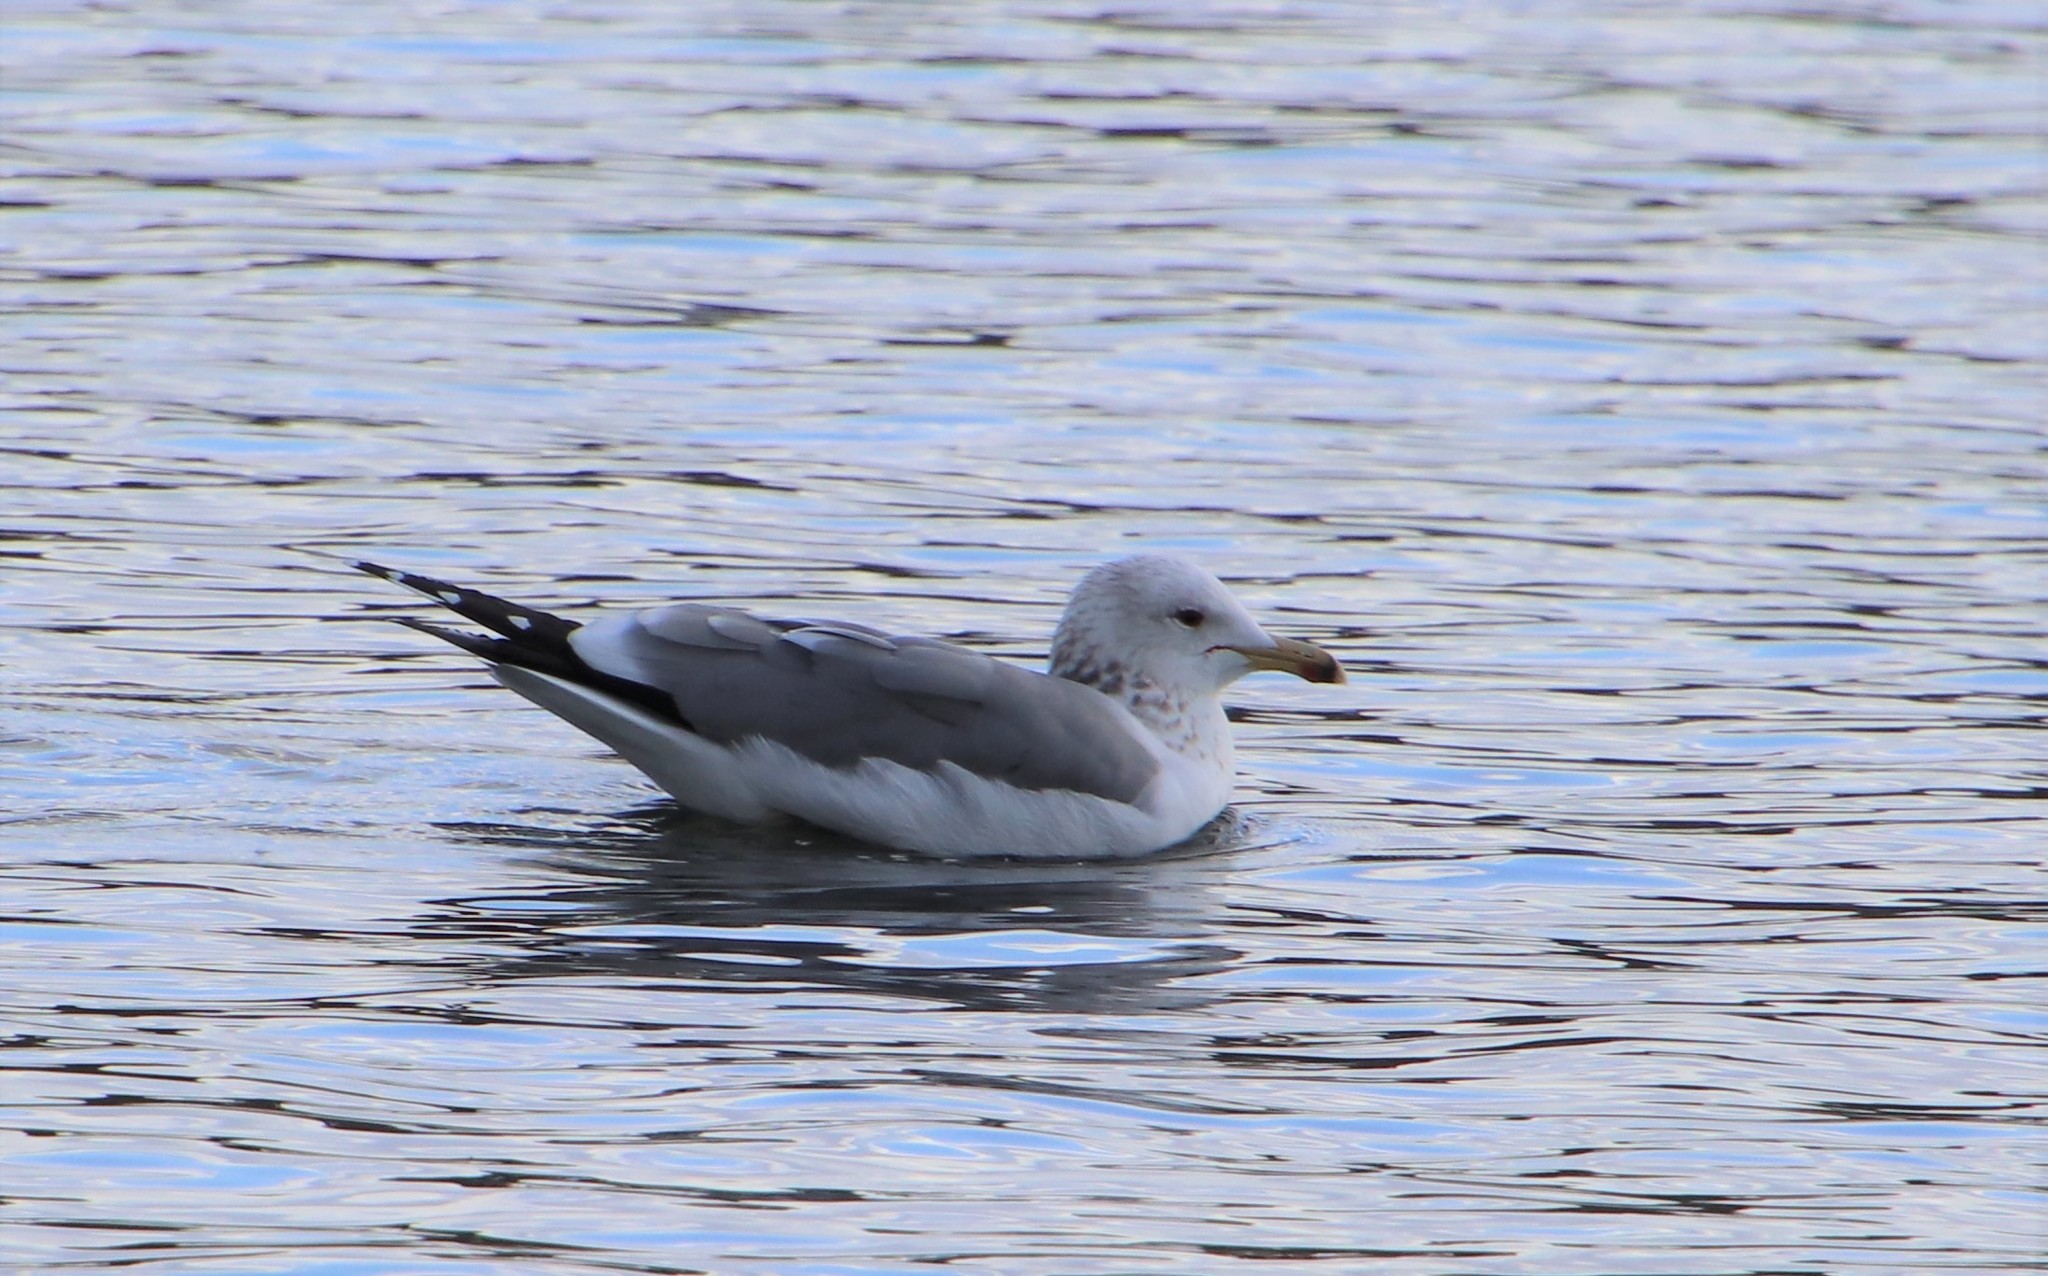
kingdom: Animalia
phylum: Chordata
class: Aves
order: Charadriiformes
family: Laridae
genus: Larus
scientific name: Larus californicus
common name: California gull
